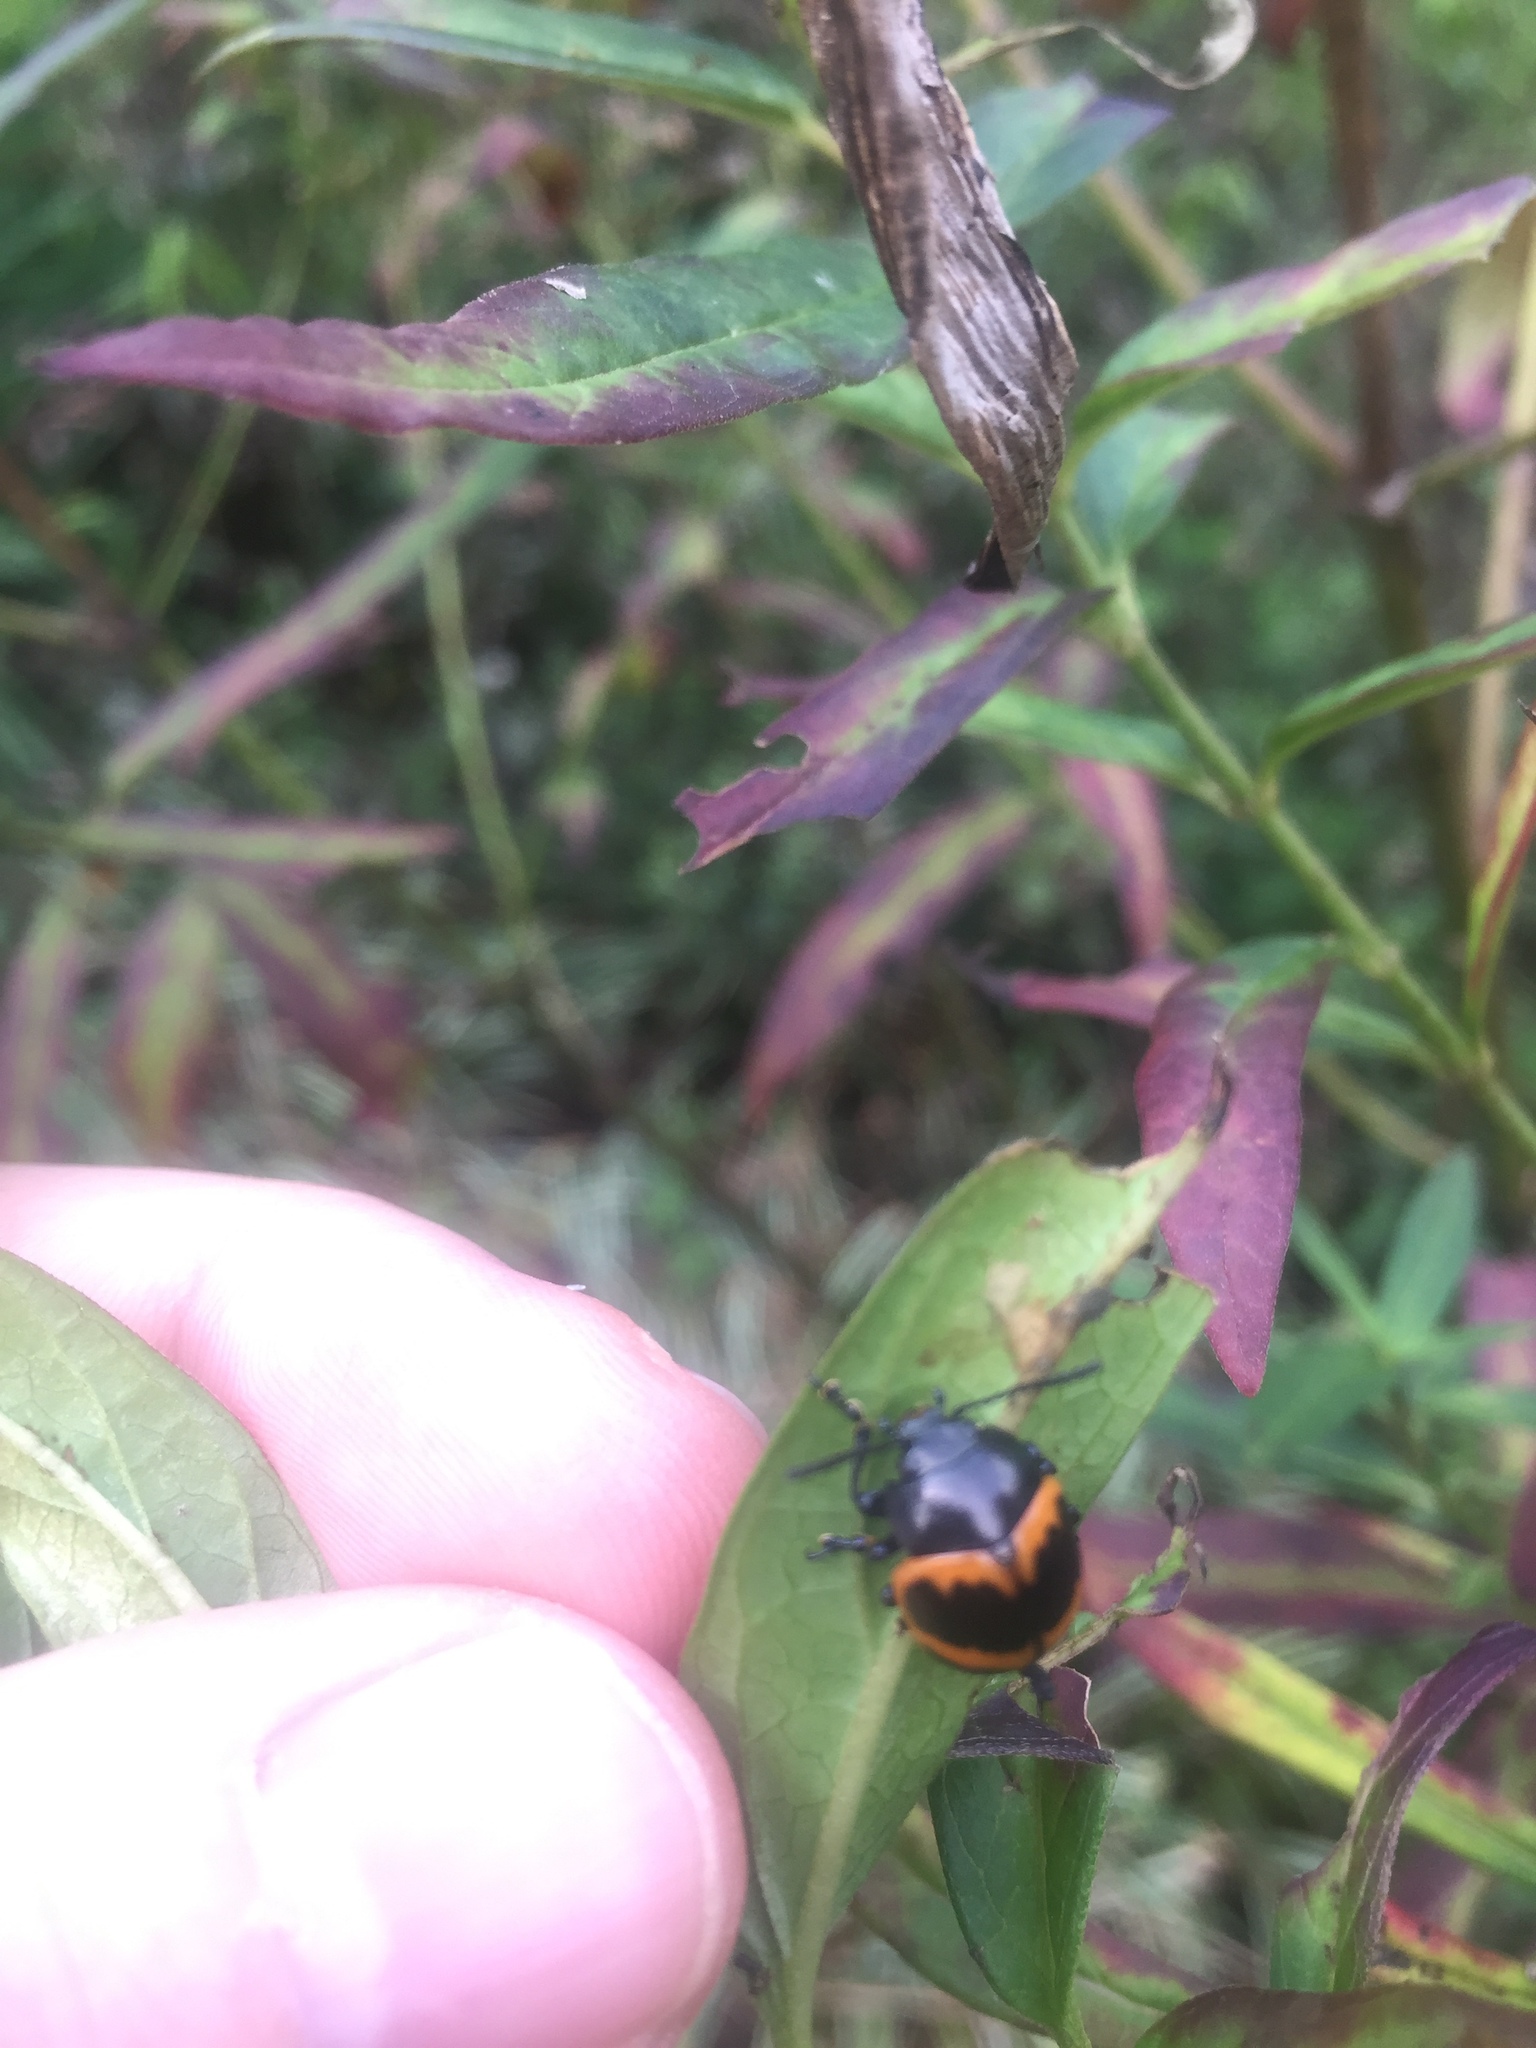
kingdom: Animalia
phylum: Arthropoda
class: Insecta
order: Coleoptera
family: Chrysomelidae
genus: Labidomera
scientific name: Labidomera clivicollis
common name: Swamp milkweed leaf beetle
